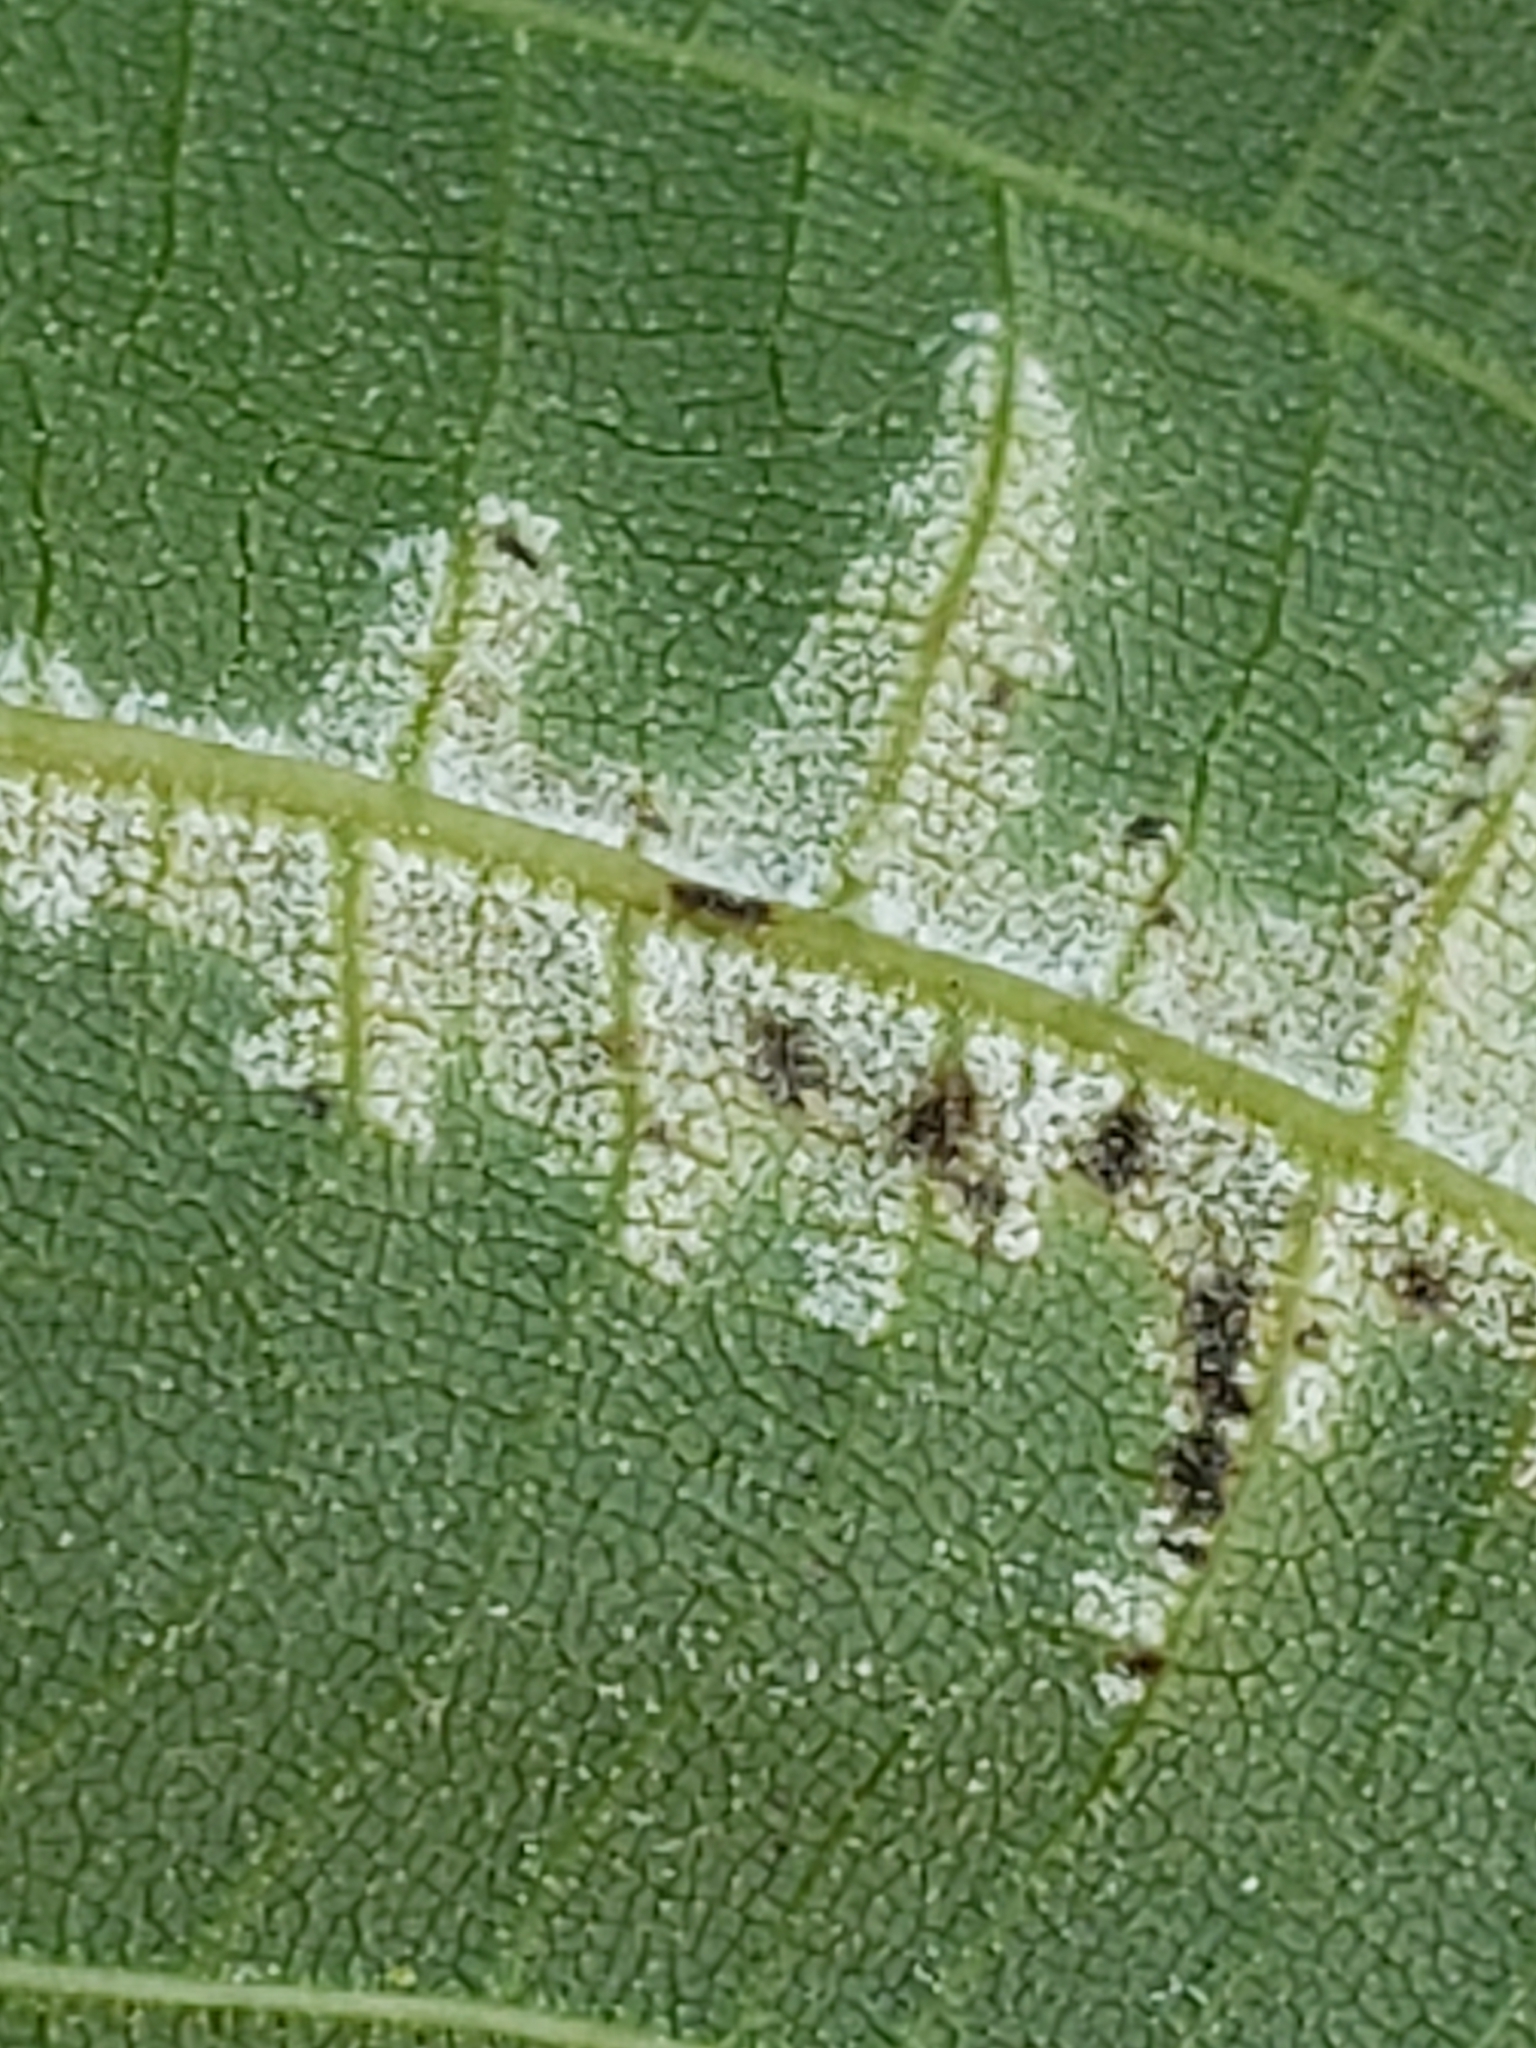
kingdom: Fungi
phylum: Basidiomycota
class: Exobasidiomycetes
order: Microstromatales
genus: Pseudomicrostroma
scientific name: Pseudomicrostroma juglandis
